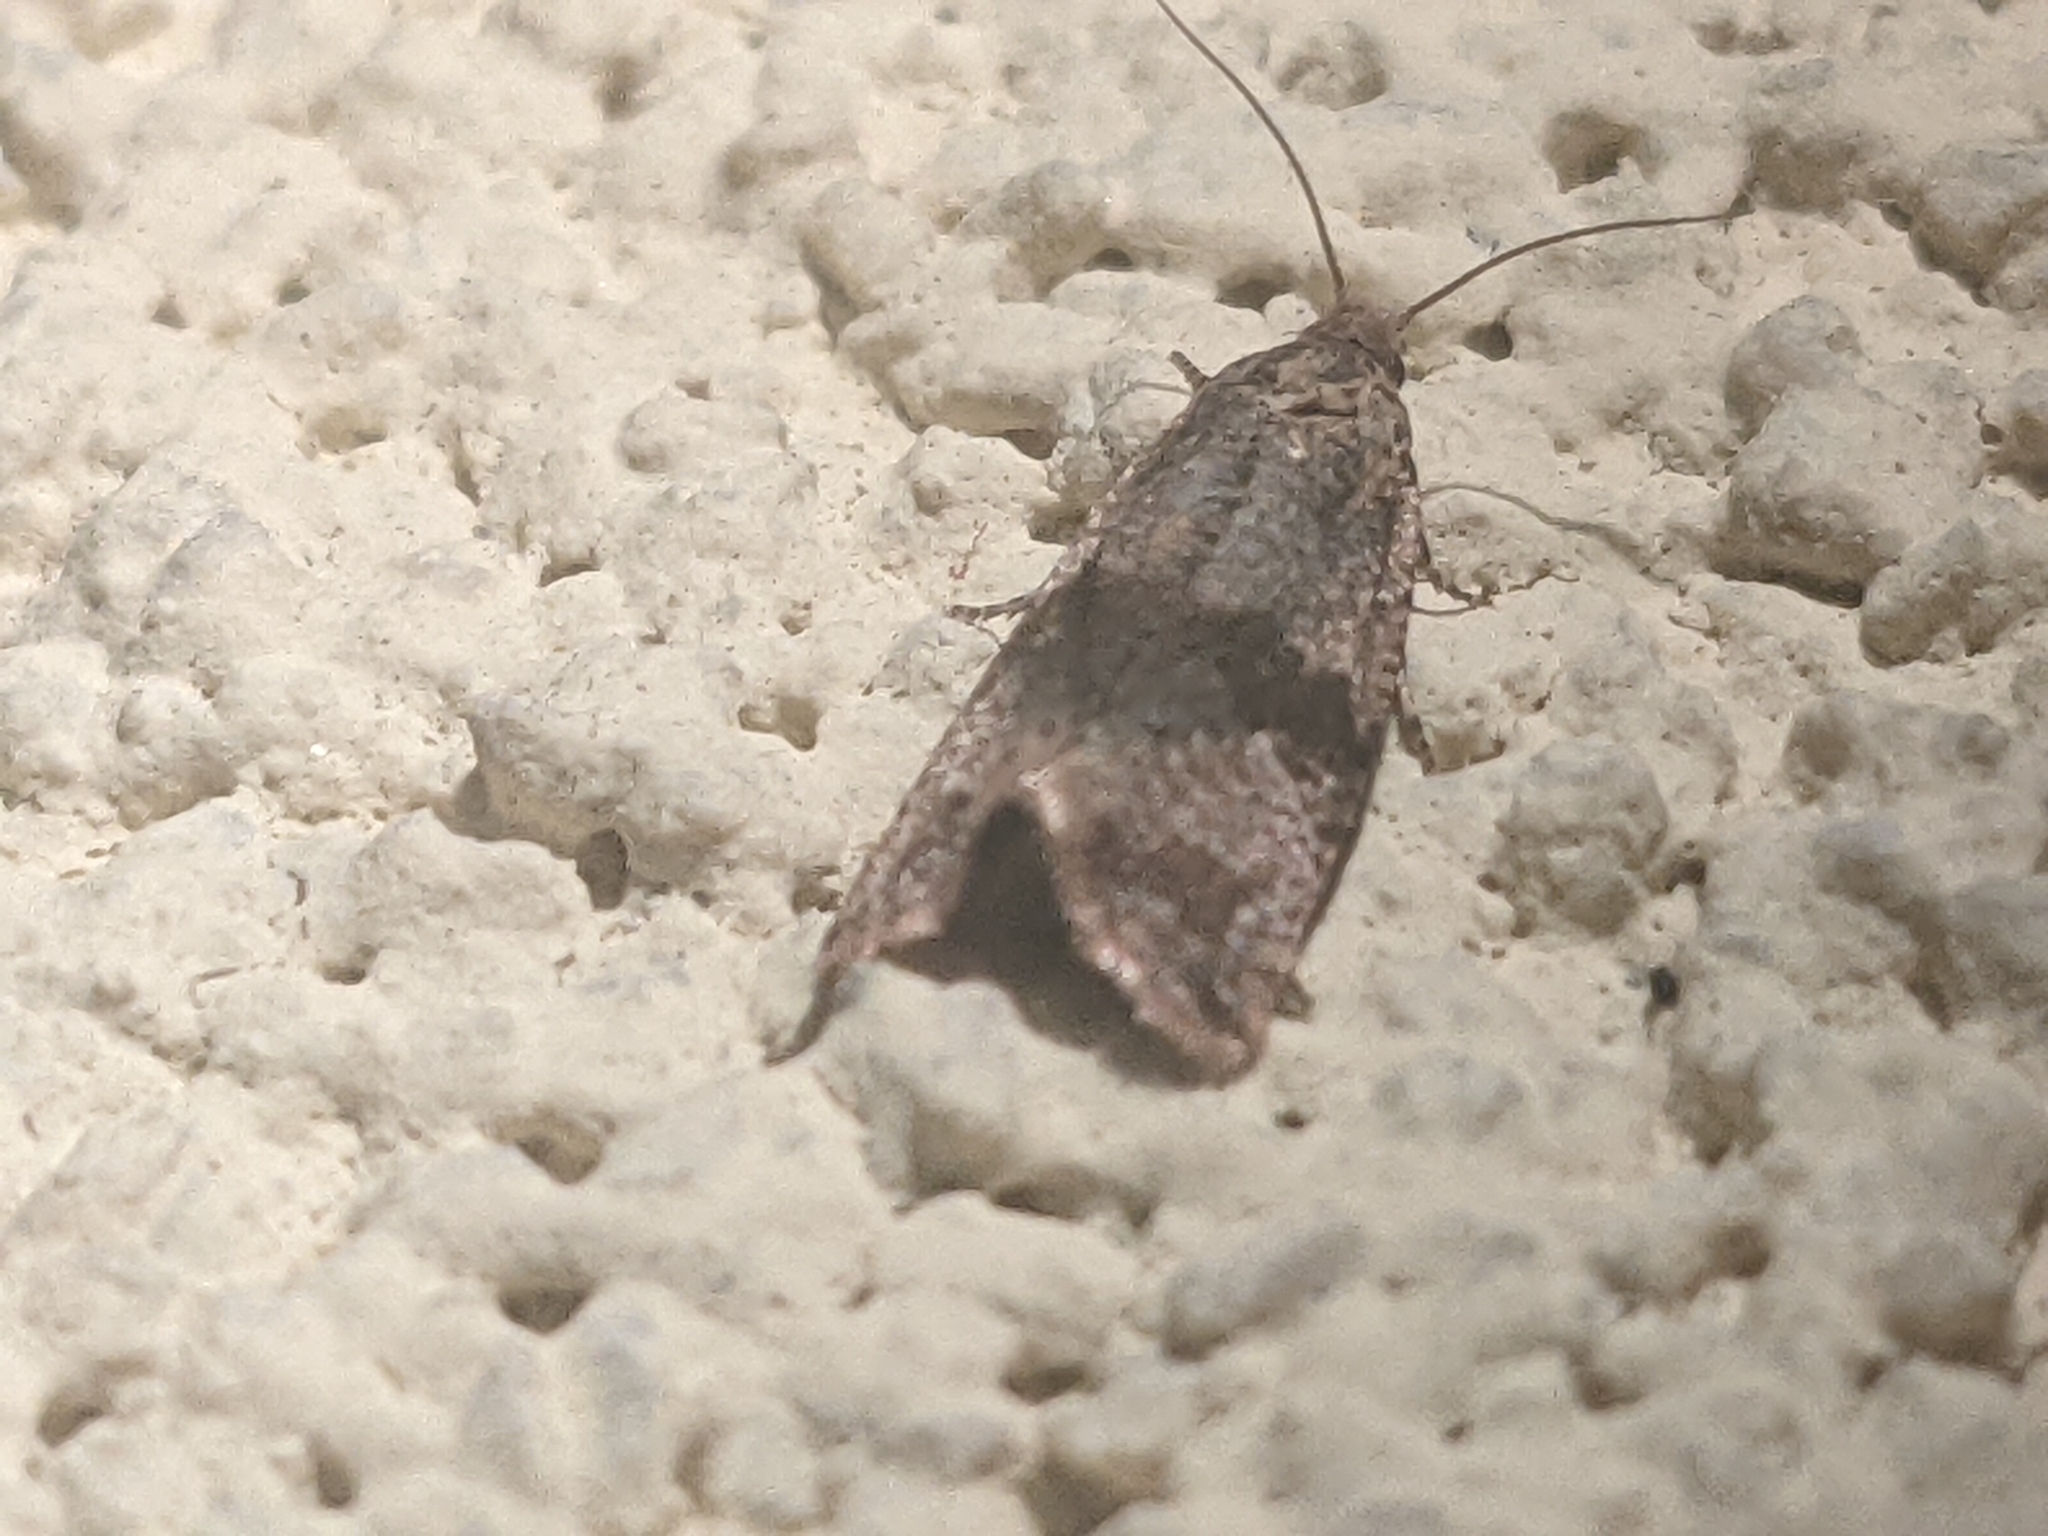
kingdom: Animalia
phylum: Arthropoda
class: Insecta
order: Lepidoptera
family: Tortricidae
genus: Celypha
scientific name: Celypha striana
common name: Barred marble
